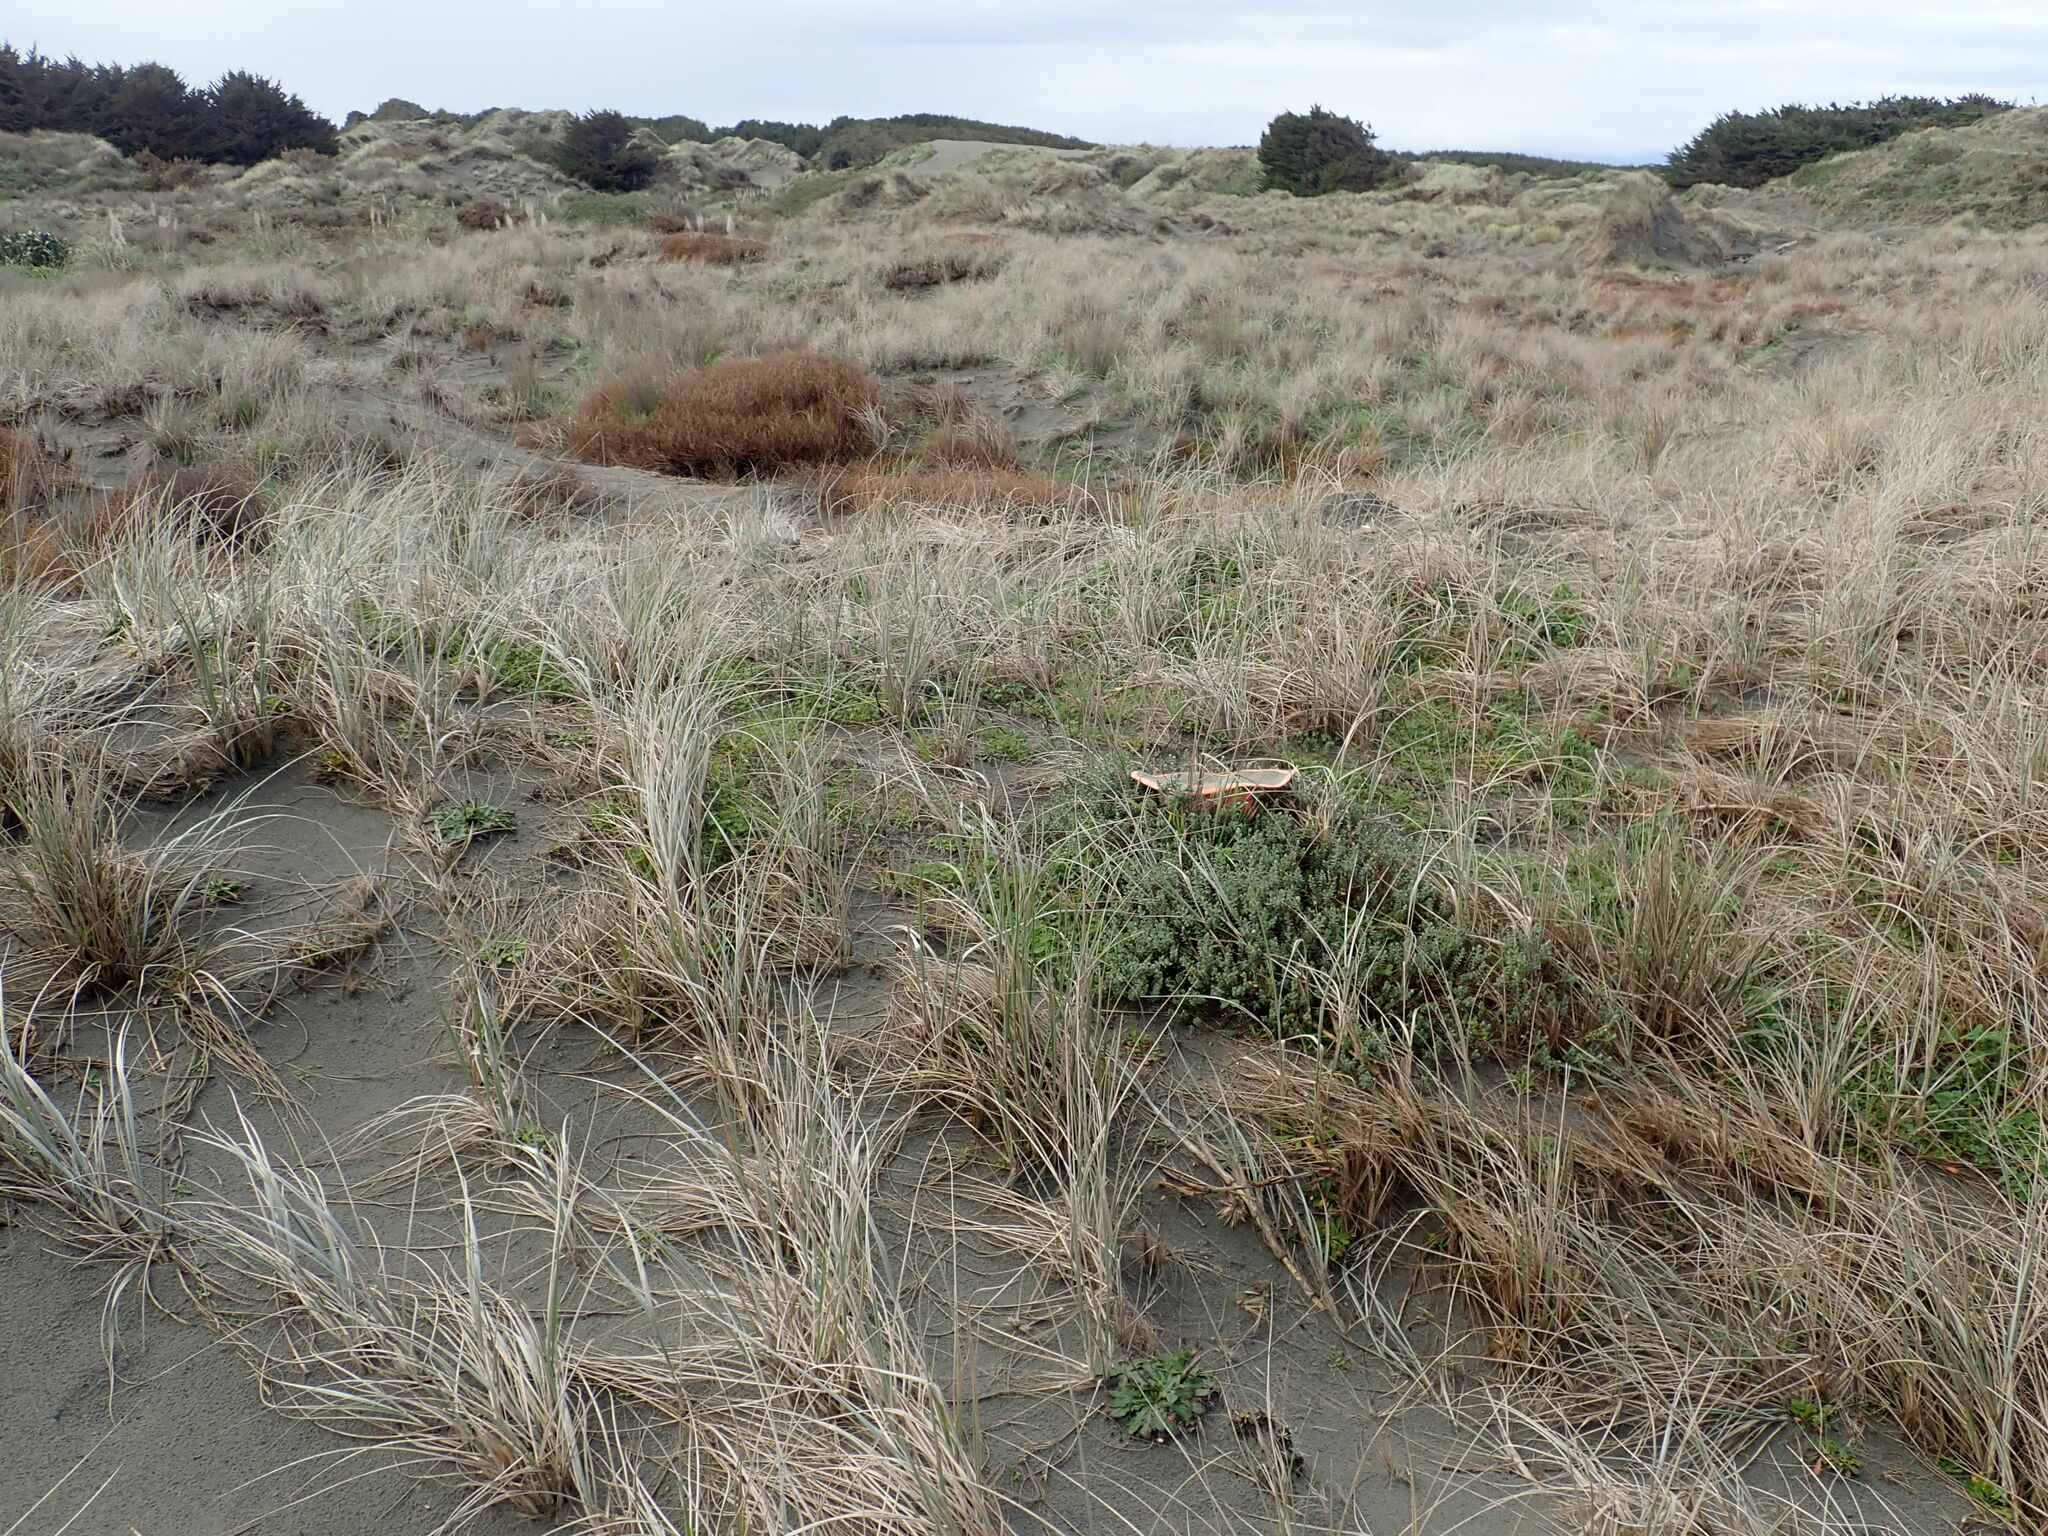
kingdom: Animalia
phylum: Arthropoda
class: Arachnida
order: Araneae
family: Theridiidae
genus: Latrodectus
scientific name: Latrodectus katipo
